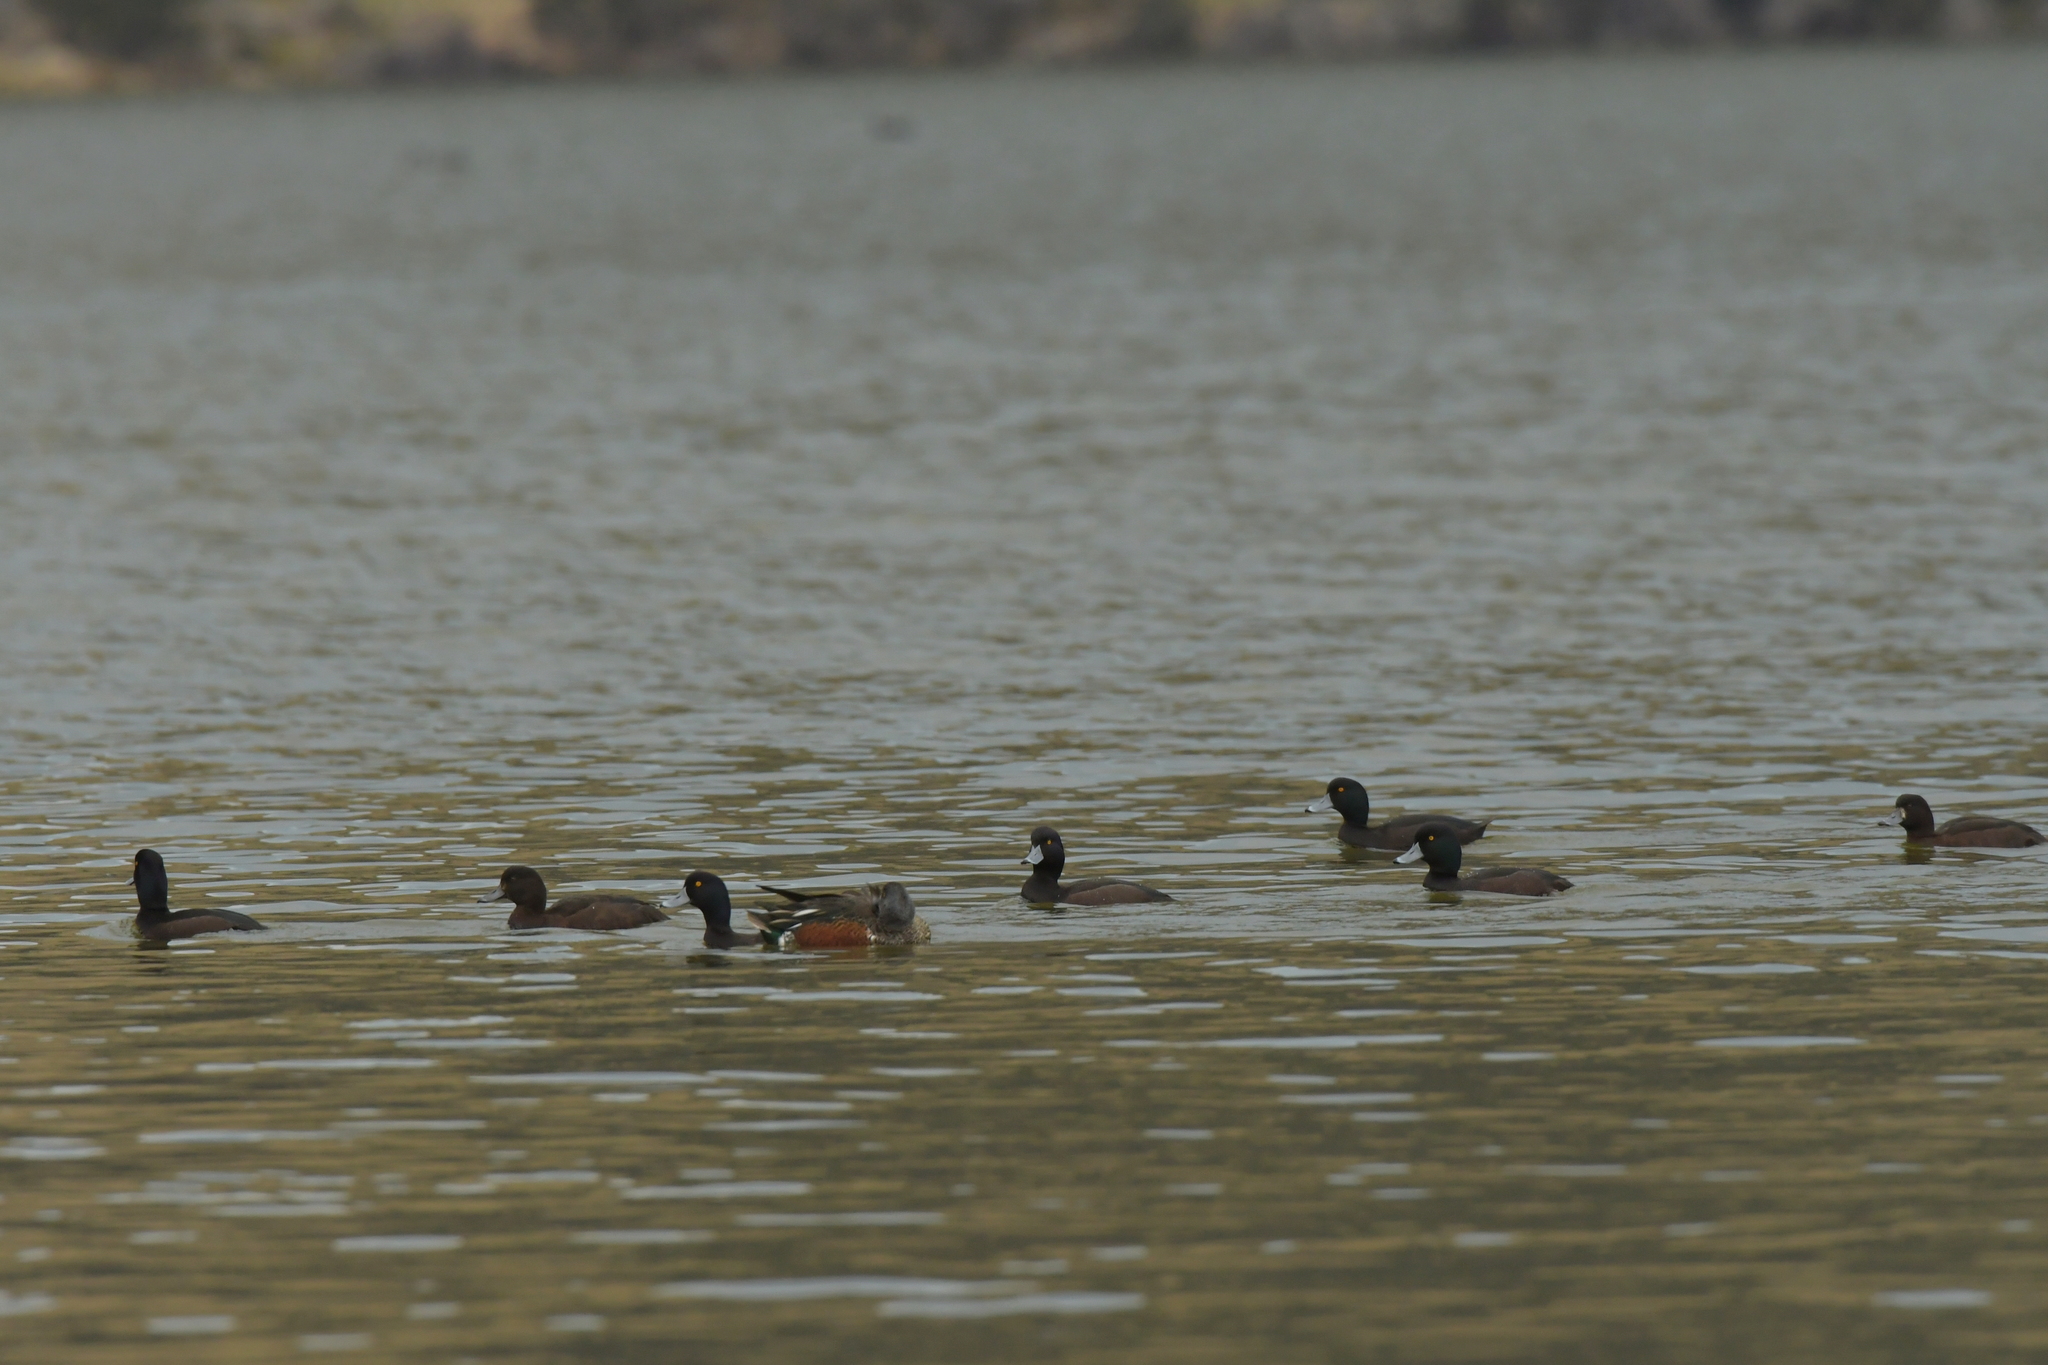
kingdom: Animalia
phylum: Chordata
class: Aves
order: Anseriformes
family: Anatidae
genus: Aythya
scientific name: Aythya novaeseelandiae
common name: New zealand scaup
